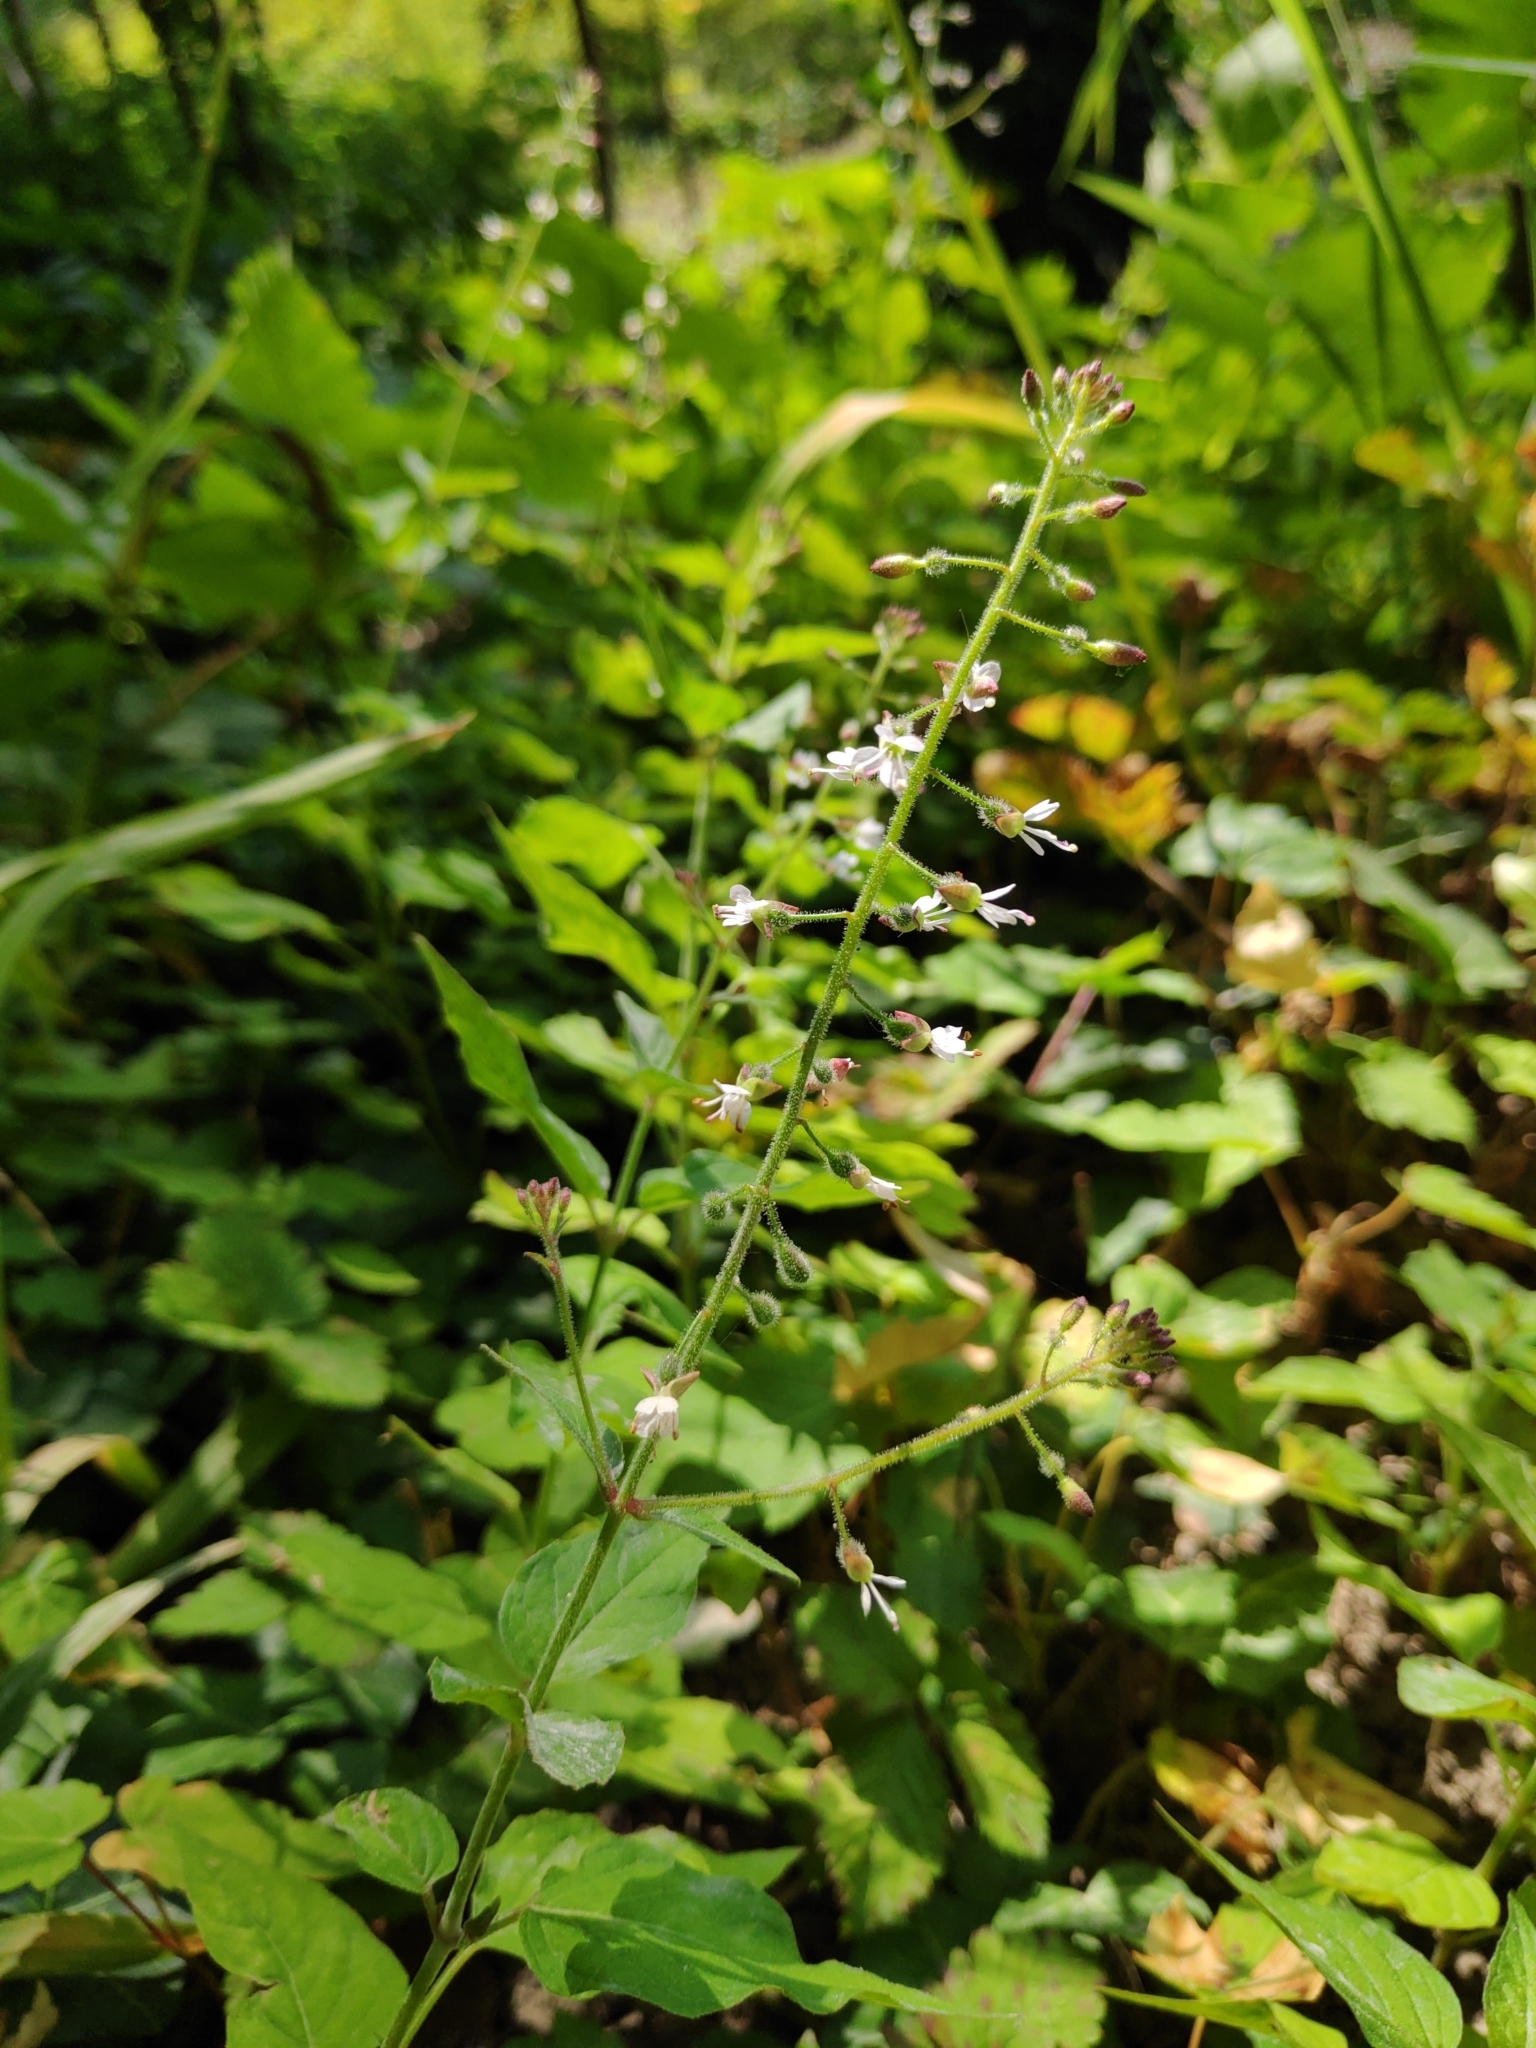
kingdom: Plantae
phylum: Tracheophyta
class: Magnoliopsida
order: Myrtales
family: Onagraceae
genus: Circaea
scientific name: Circaea lutetiana
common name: Enchanter's-nightshade
